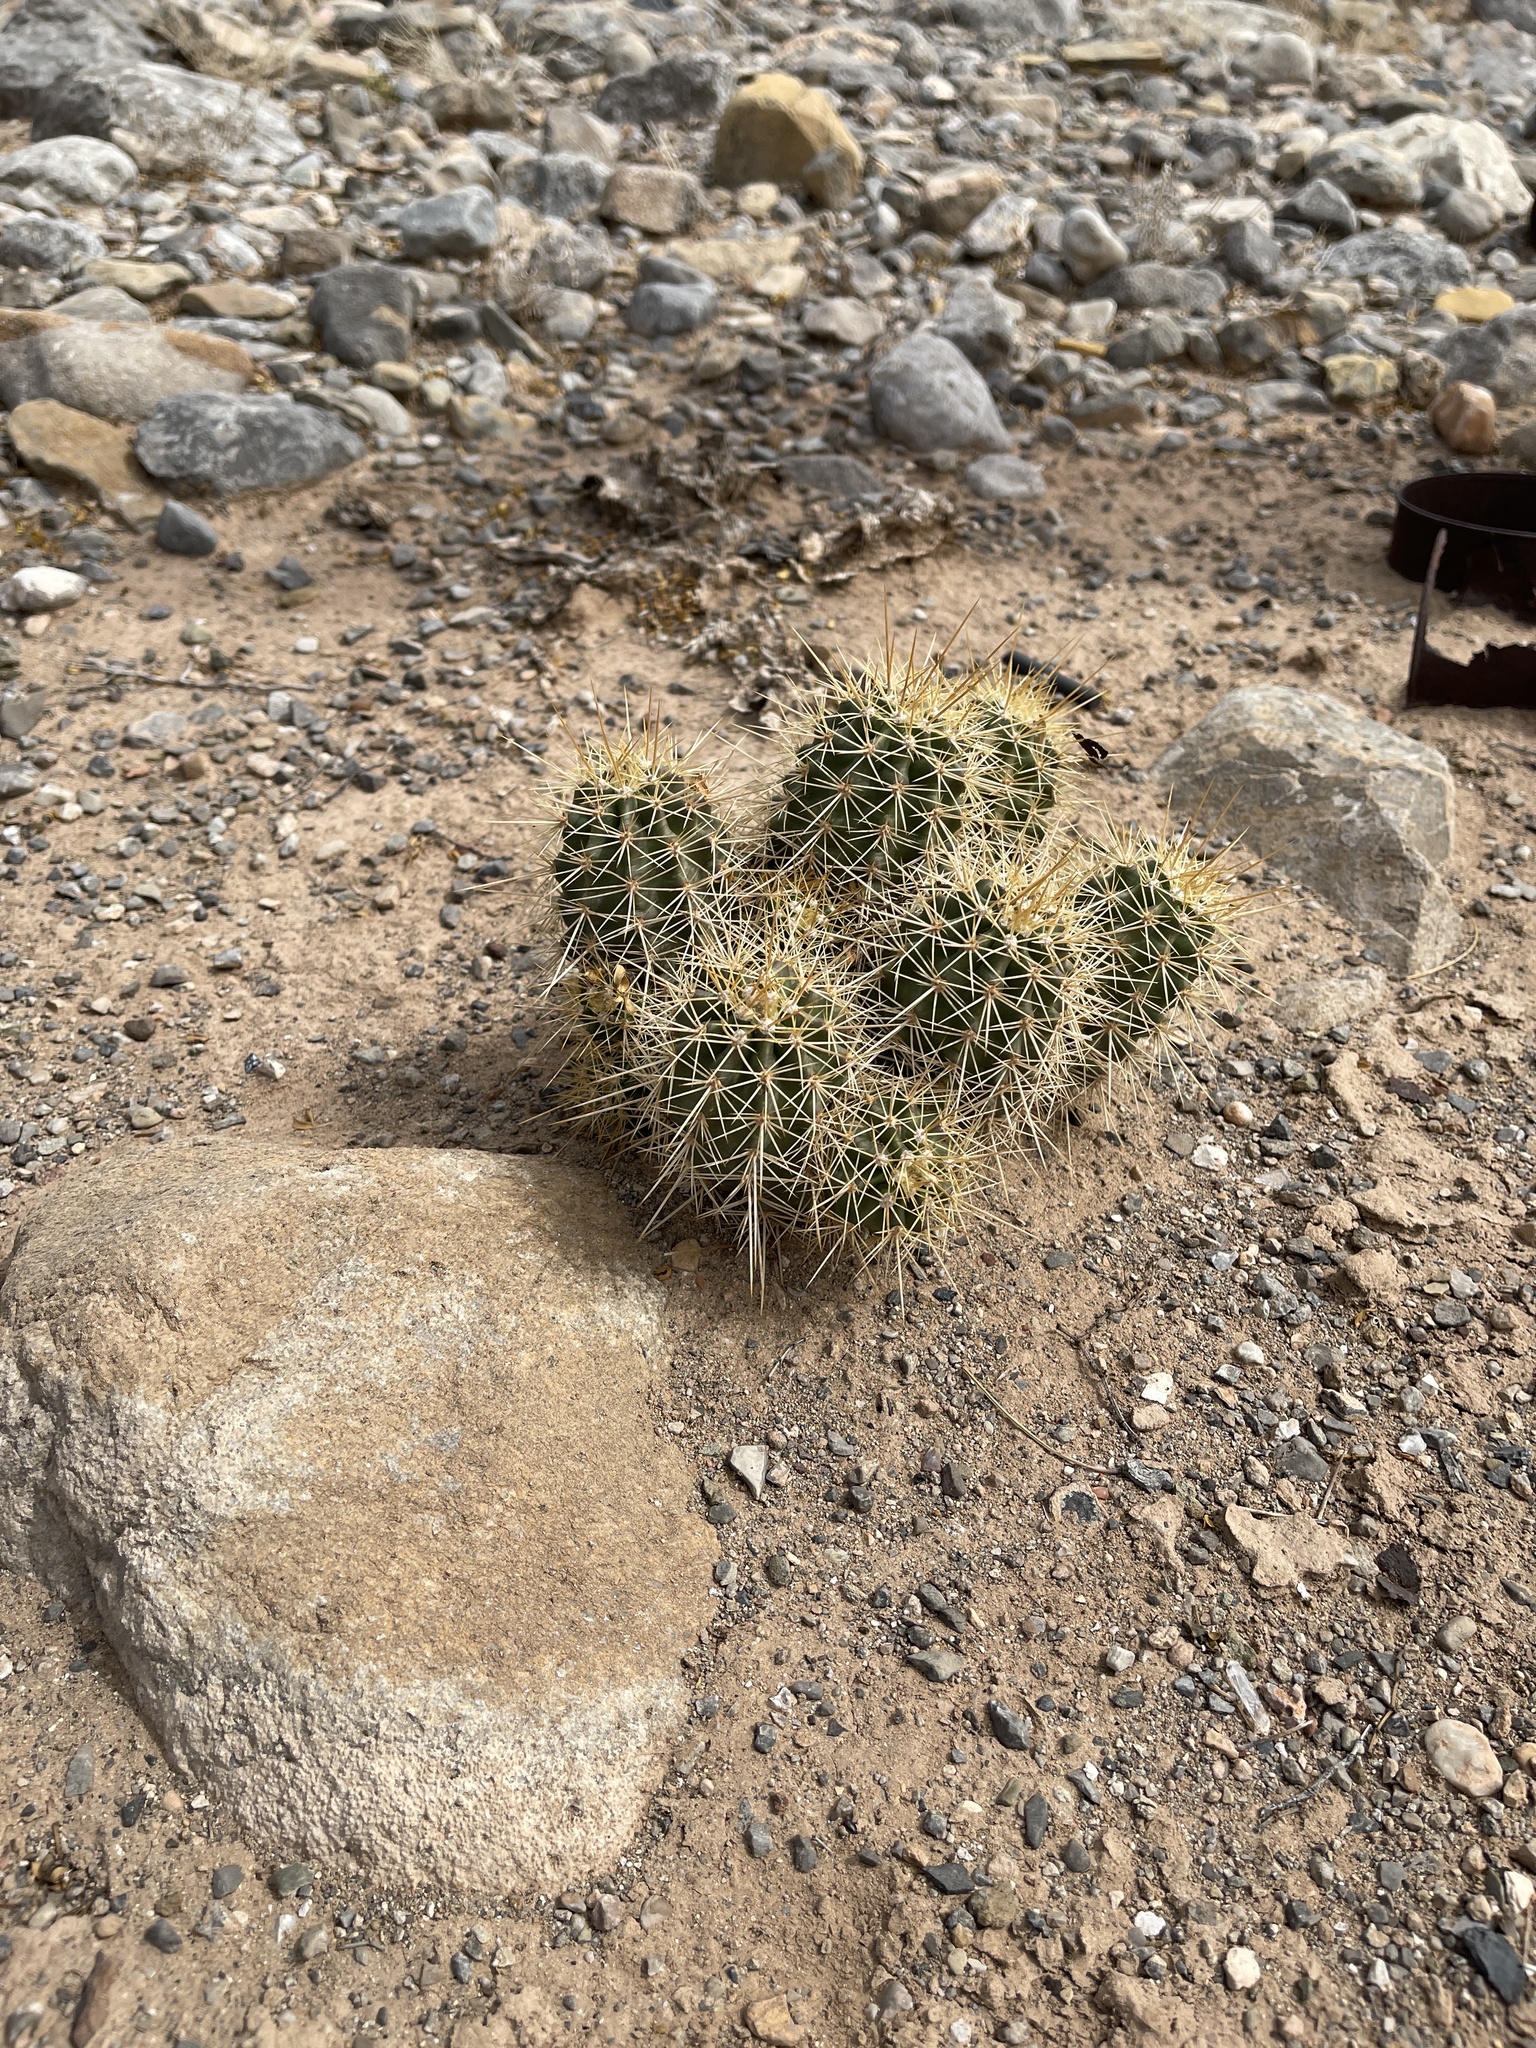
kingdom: Plantae
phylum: Tracheophyta
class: Magnoliopsida
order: Caryophyllales
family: Cactaceae
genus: Echinocereus
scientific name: Echinocereus coccineus
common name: Scarlet hedgehog cactus
